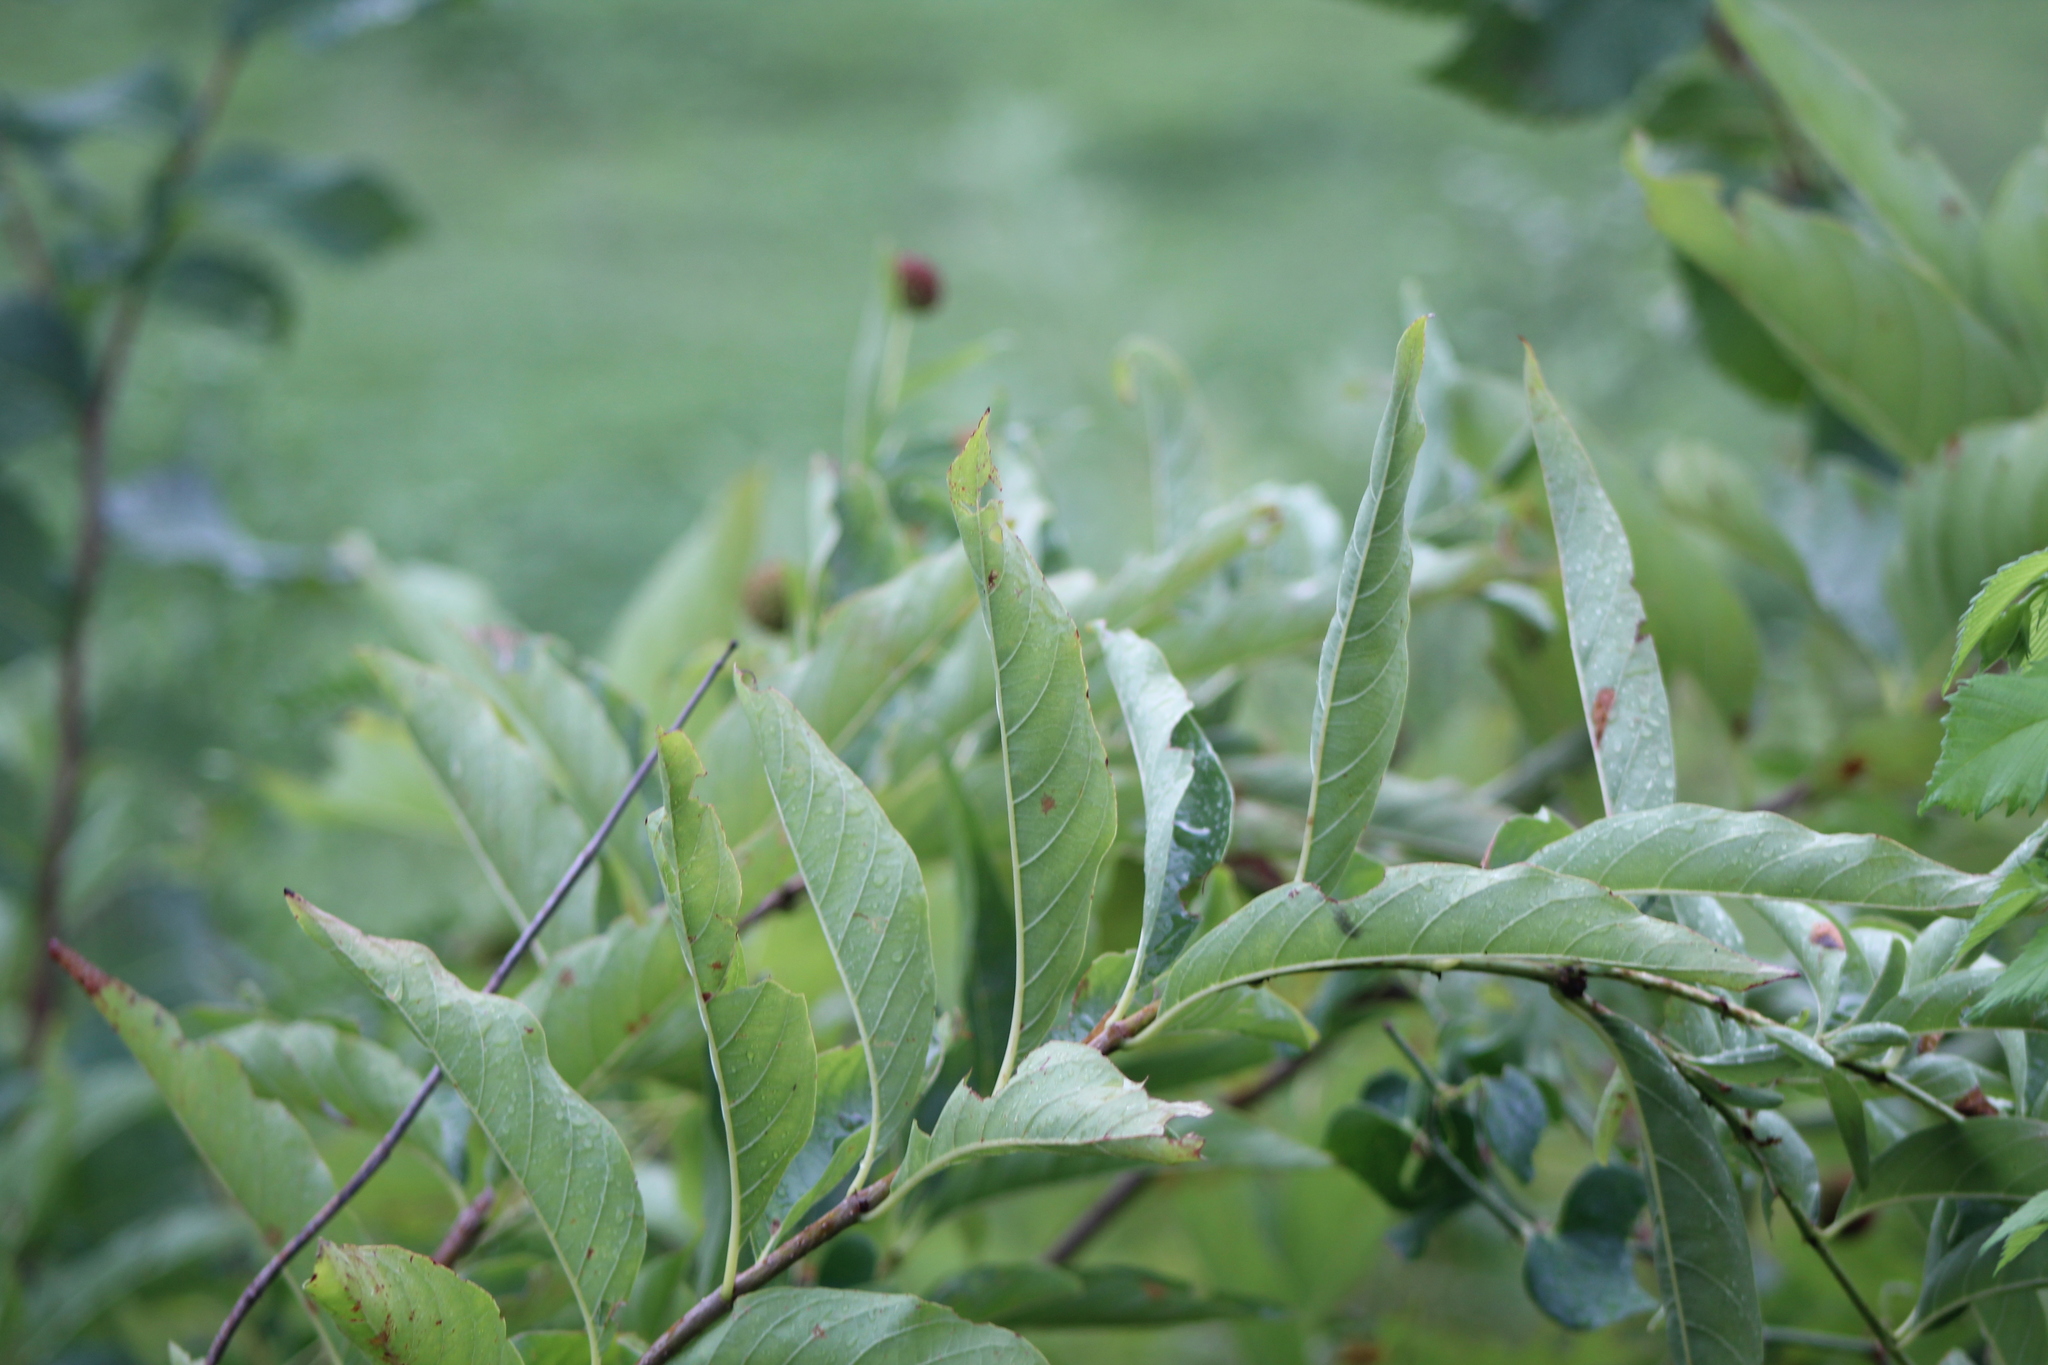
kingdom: Plantae
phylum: Tracheophyta
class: Magnoliopsida
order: Gentianales
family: Rubiaceae
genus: Cephalanthus
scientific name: Cephalanthus occidentalis
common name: Button-willow
